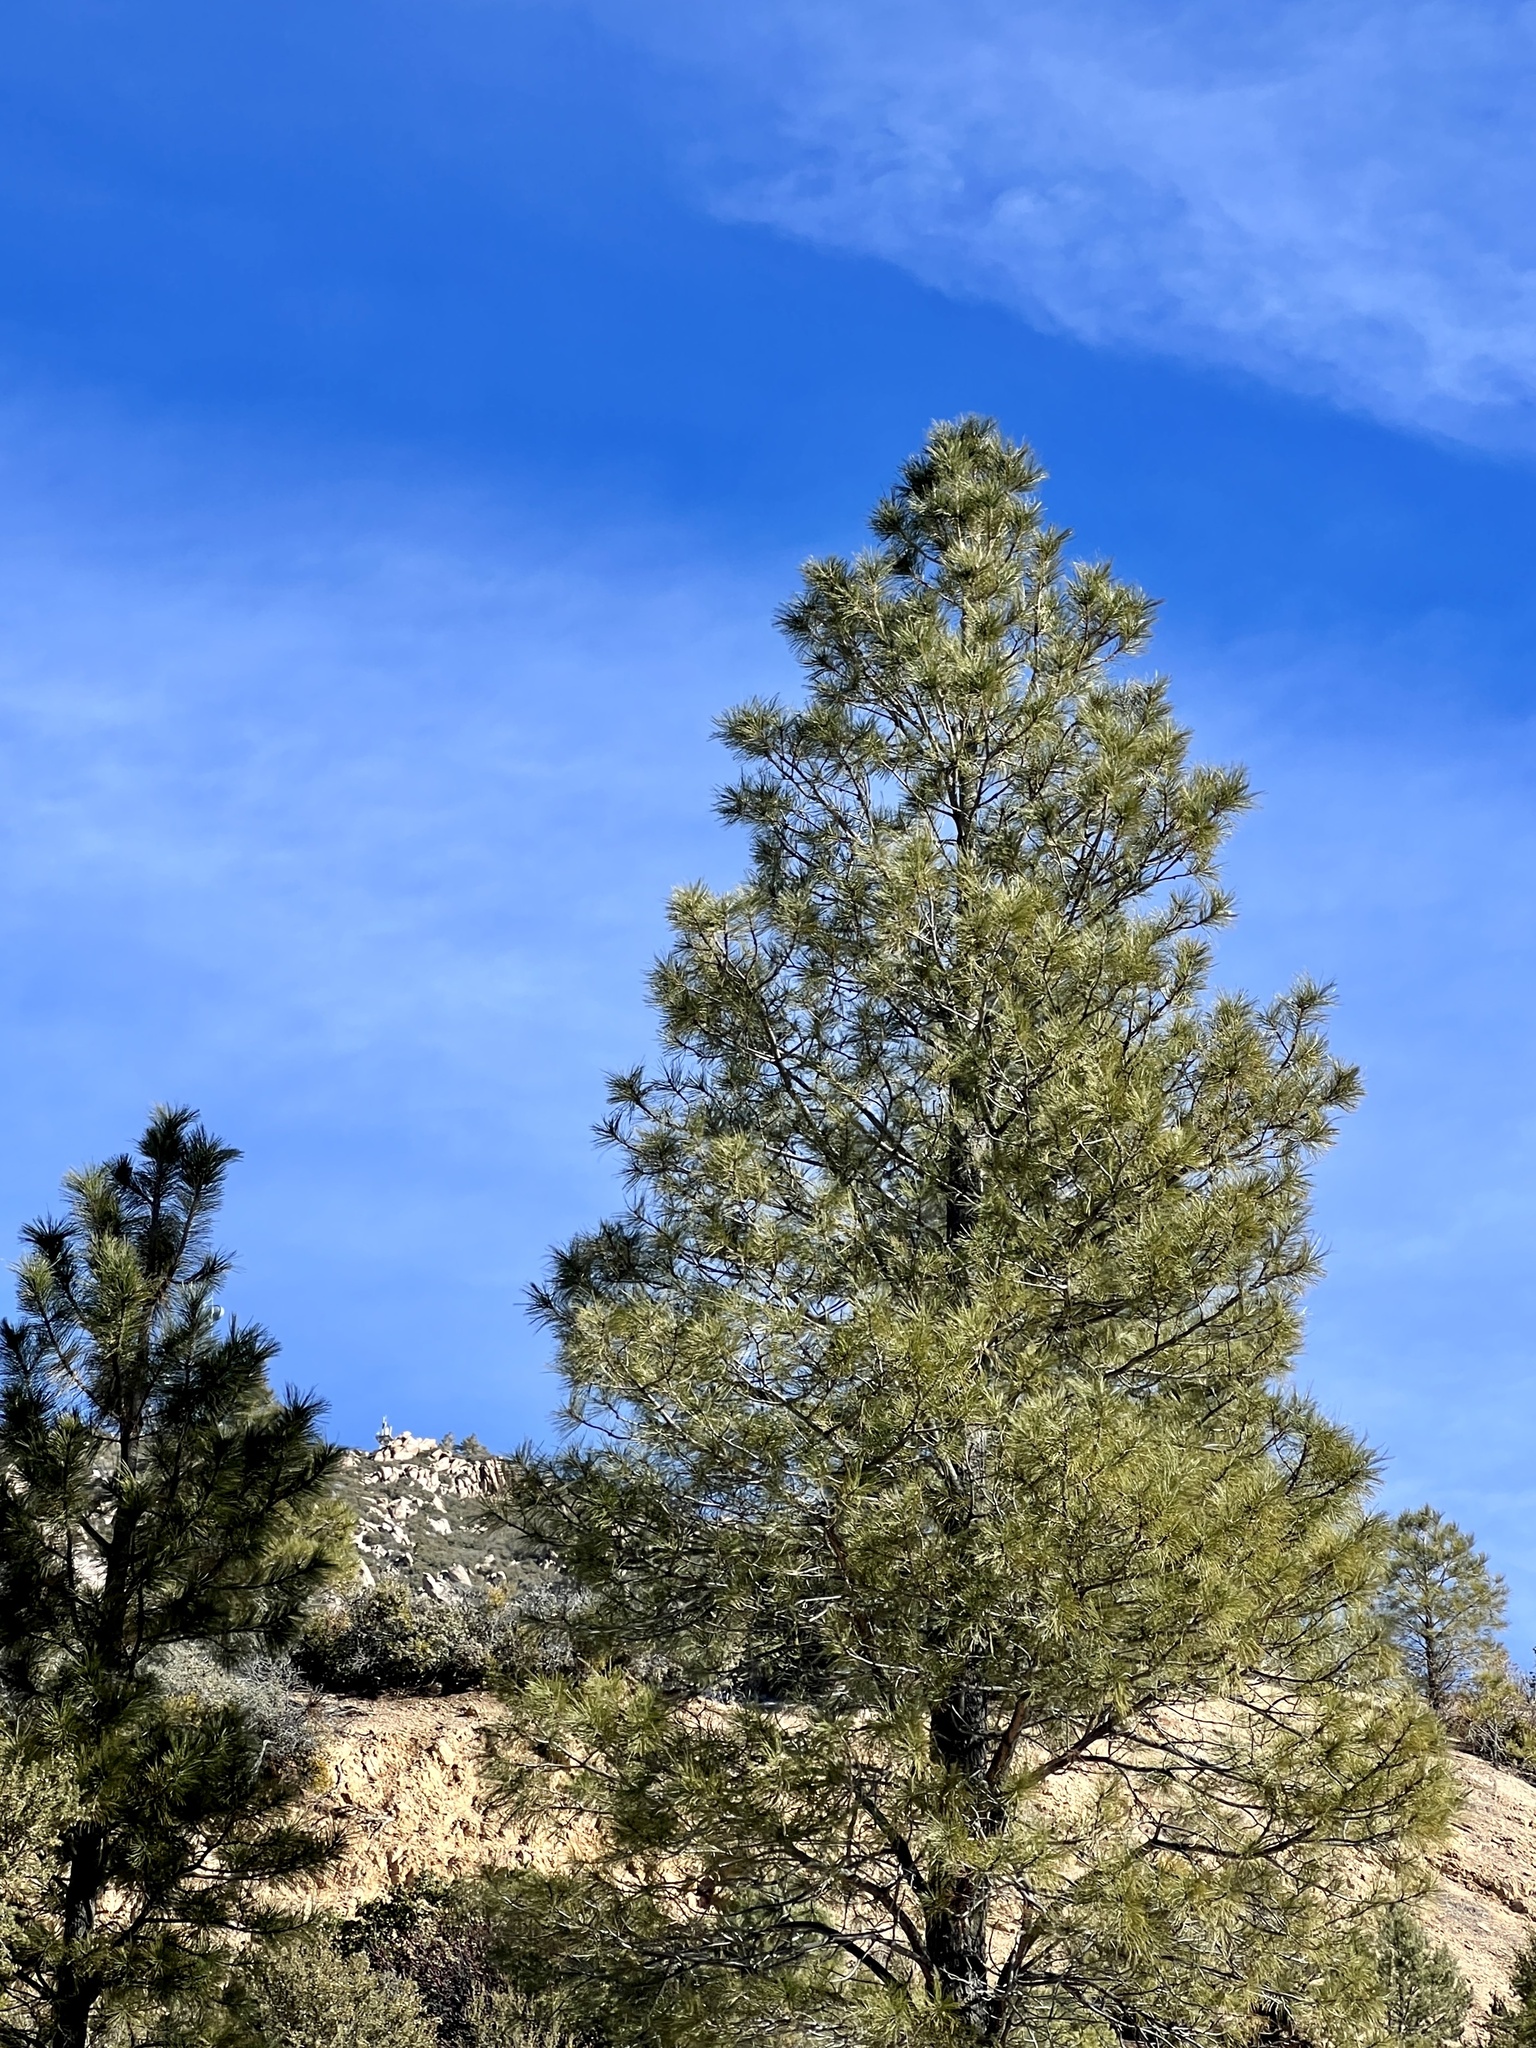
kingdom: Plantae
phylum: Tracheophyta
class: Pinopsida
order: Pinales
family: Pinaceae
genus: Pinus
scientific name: Pinus ponderosa
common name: Western yellow-pine
